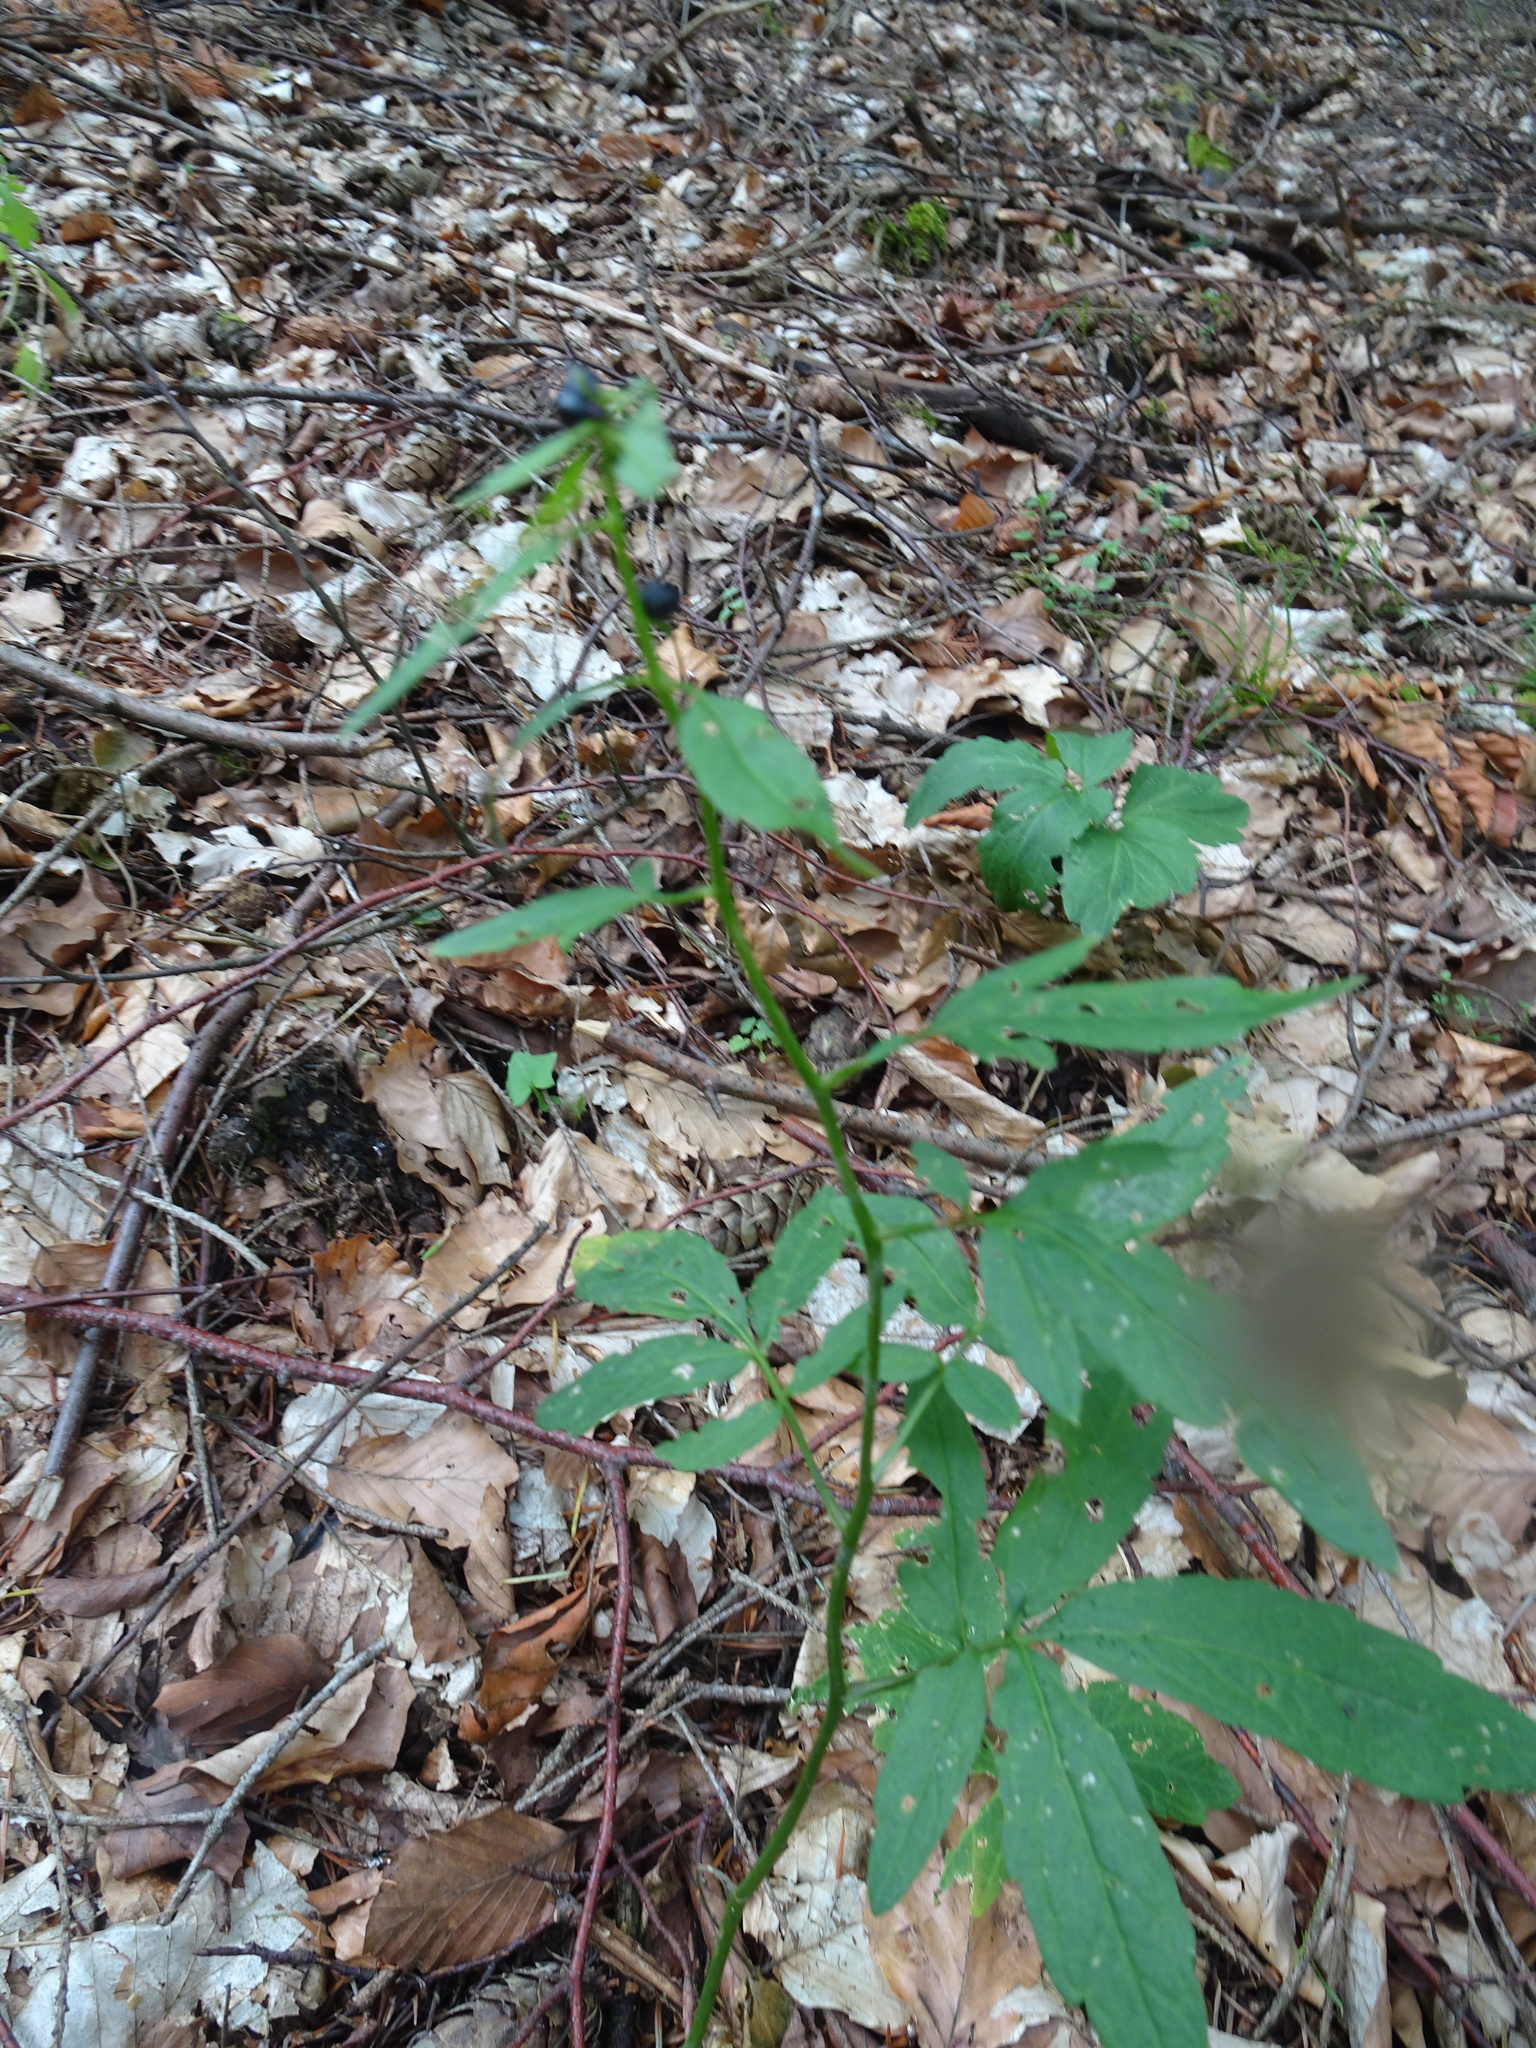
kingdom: Plantae
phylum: Tracheophyta
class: Magnoliopsida
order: Brassicales
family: Brassicaceae
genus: Cardamine
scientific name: Cardamine bulbifera
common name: Coralroot bittercress
